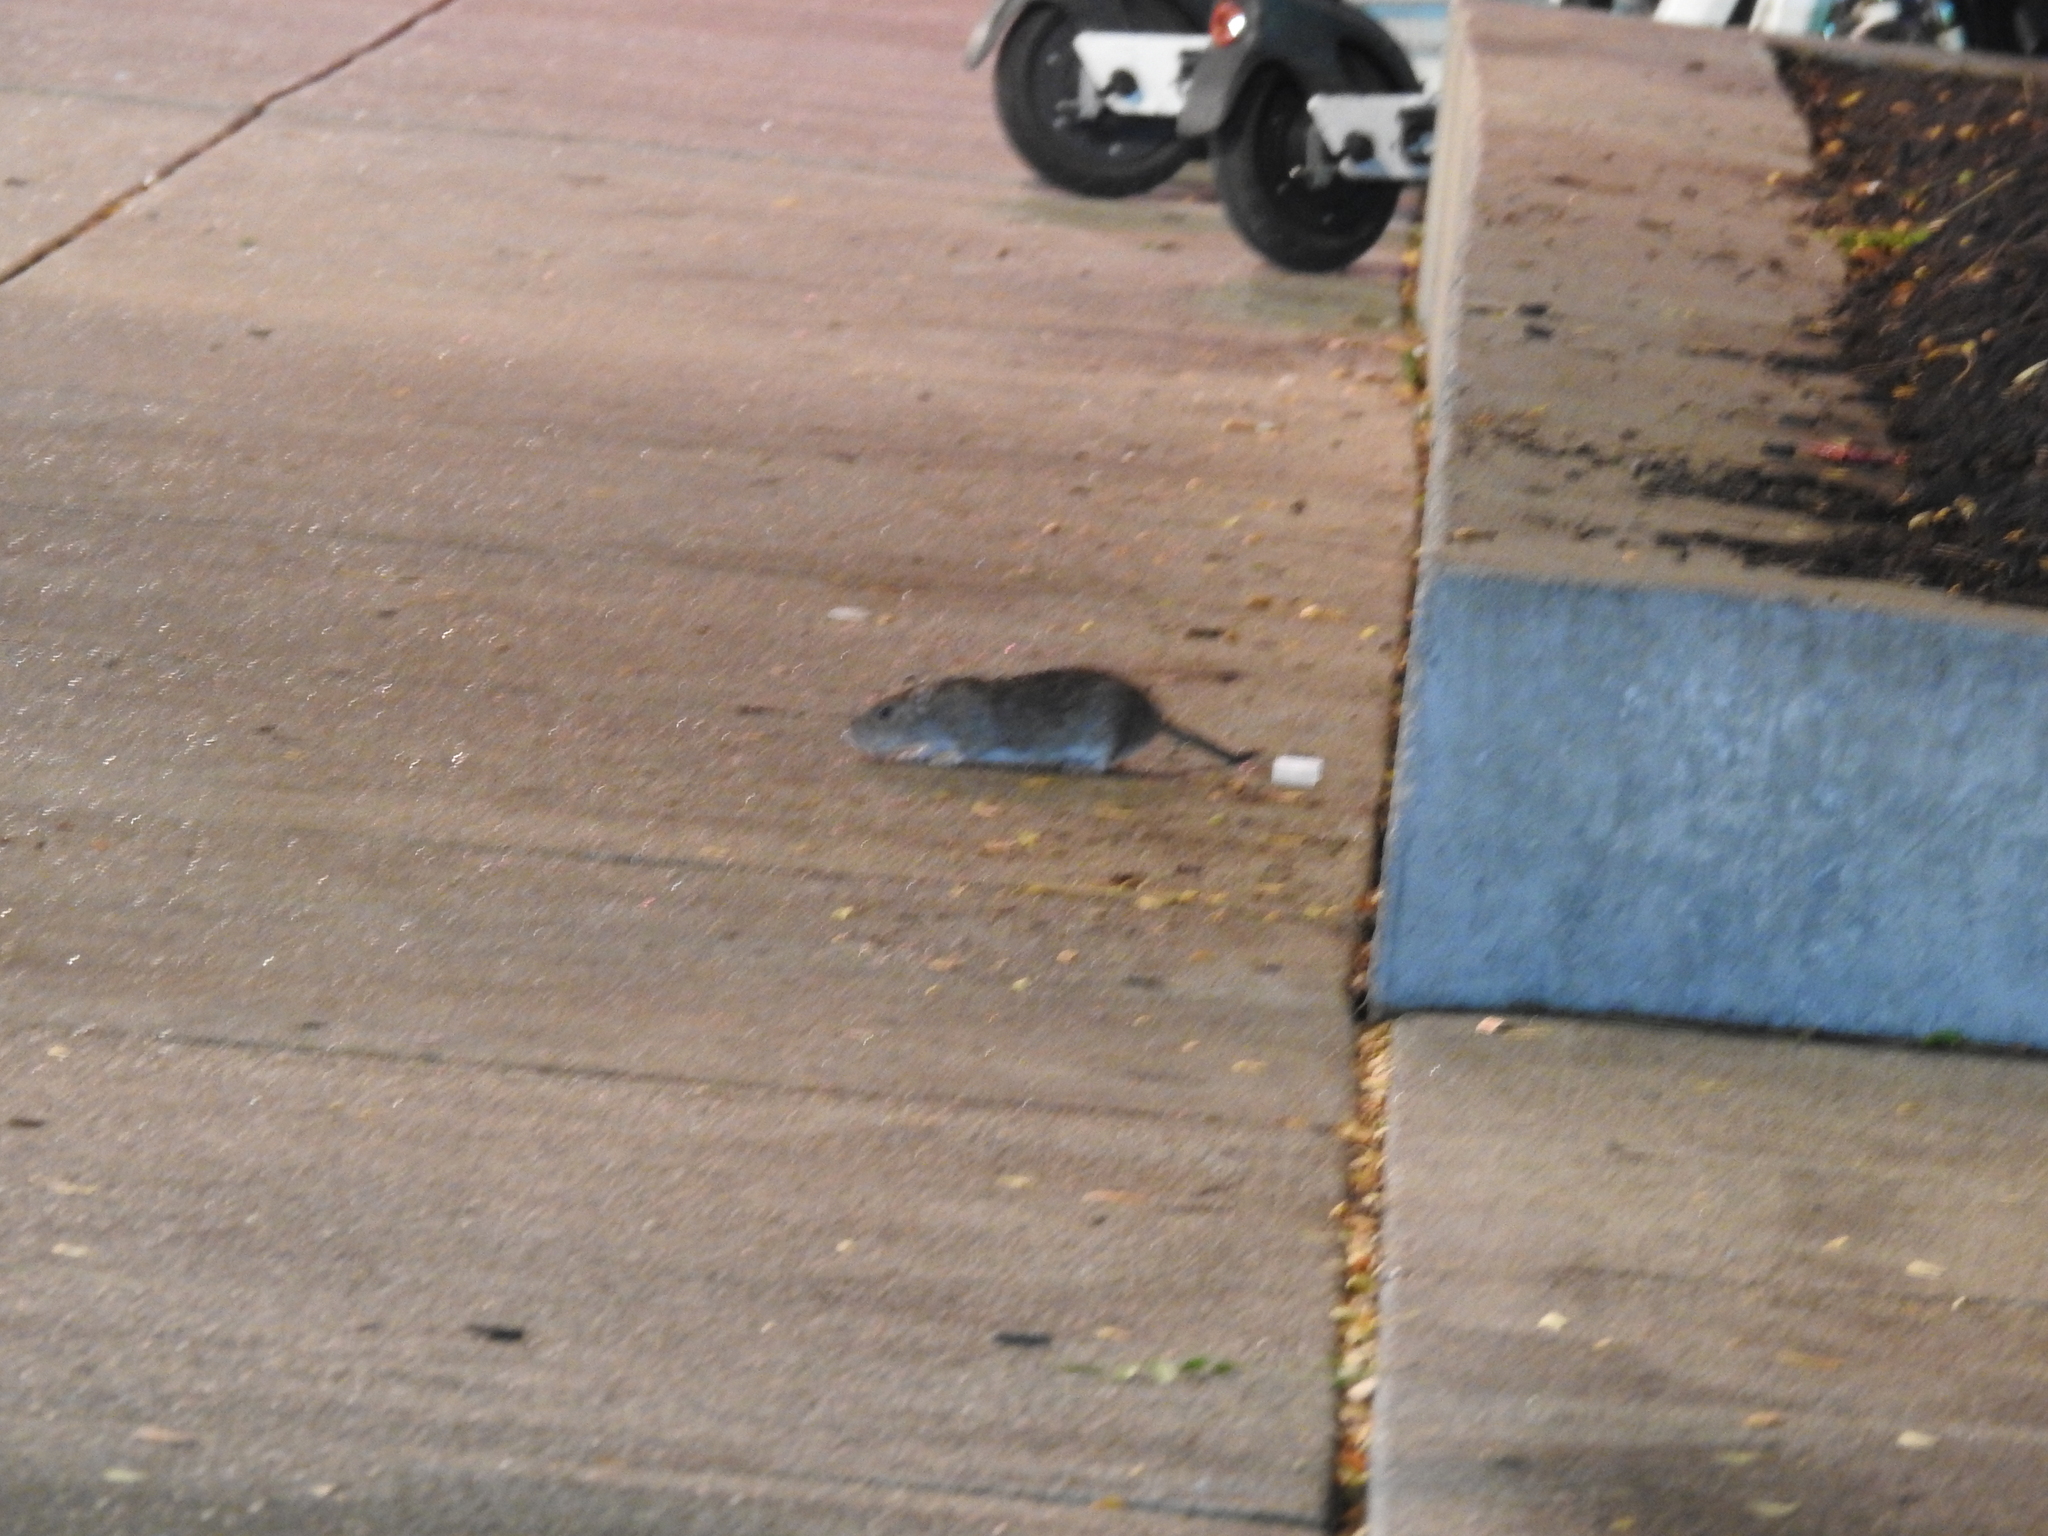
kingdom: Animalia
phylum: Chordata
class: Mammalia
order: Rodentia
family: Muridae
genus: Rattus
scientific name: Rattus norvegicus
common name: Brown rat
